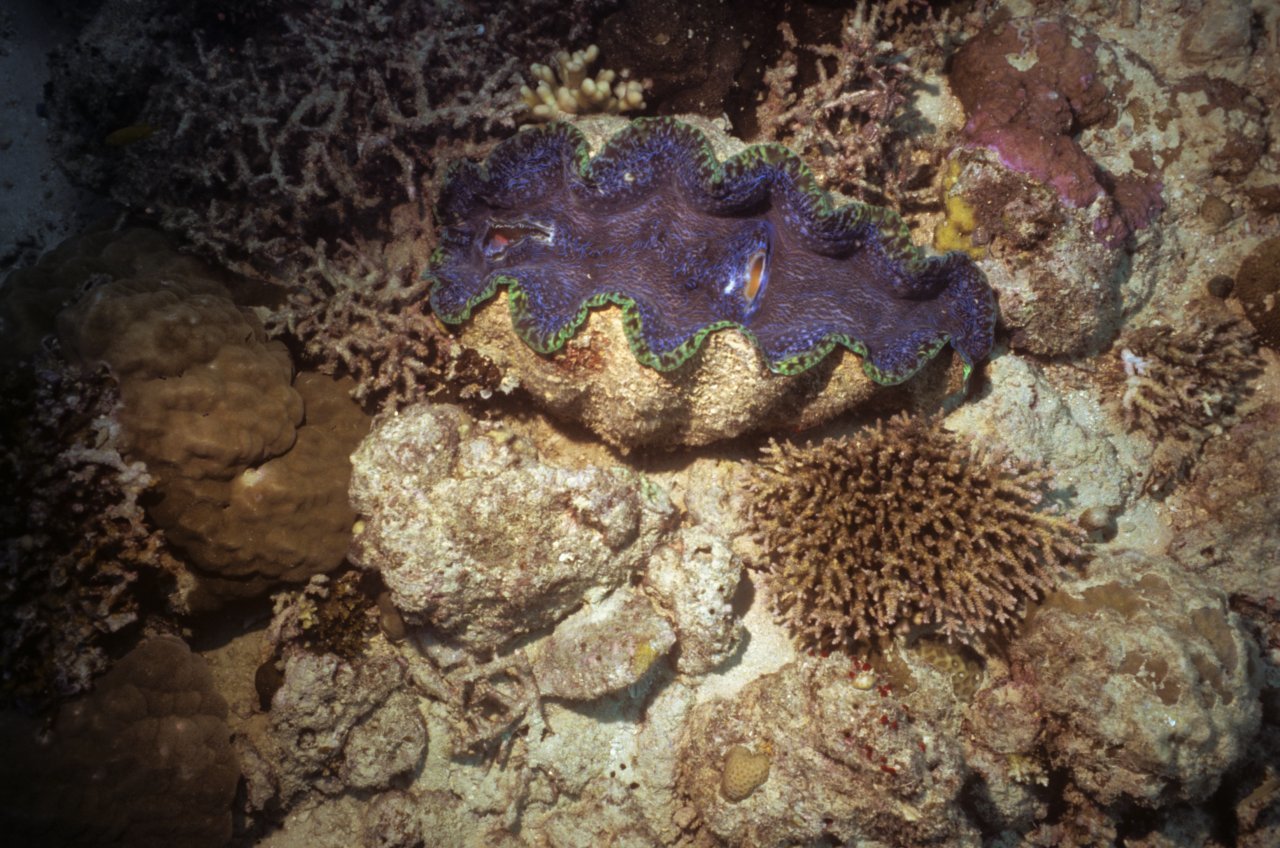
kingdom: Animalia
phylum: Mollusca
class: Bivalvia
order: Cardiida
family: Cardiidae
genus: Tridacna
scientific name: Tridacna derasa
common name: Southern giant clam
